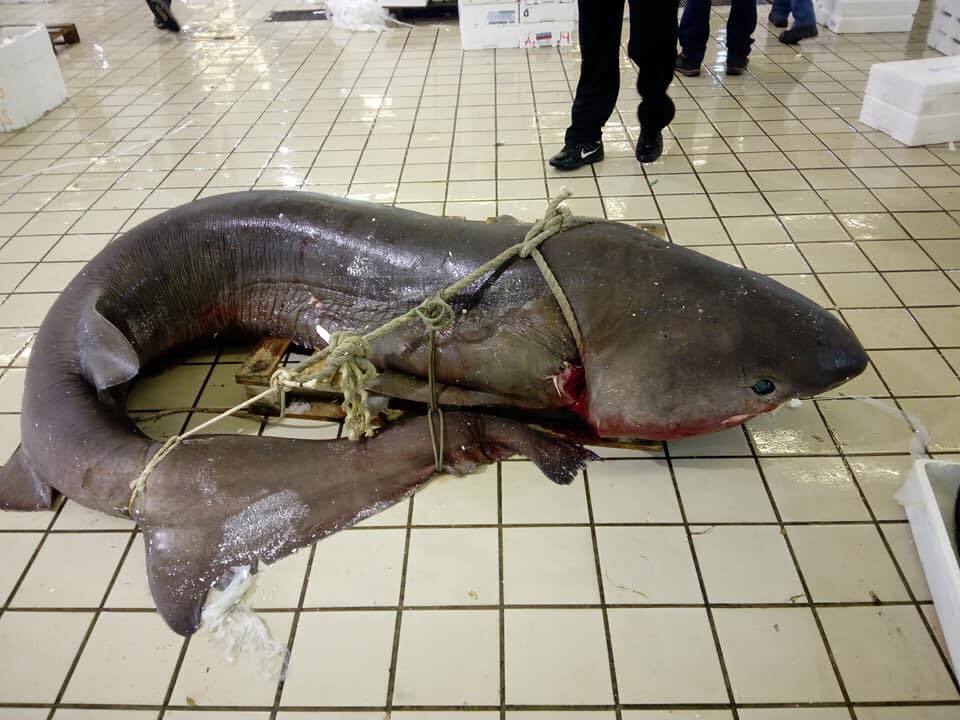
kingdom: Animalia
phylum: Chordata
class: Elasmobranchii
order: Hexanchiformes
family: Hexanchidae
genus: Hexanchus
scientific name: Hexanchus griseus
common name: Bluntnose sixgill shark
